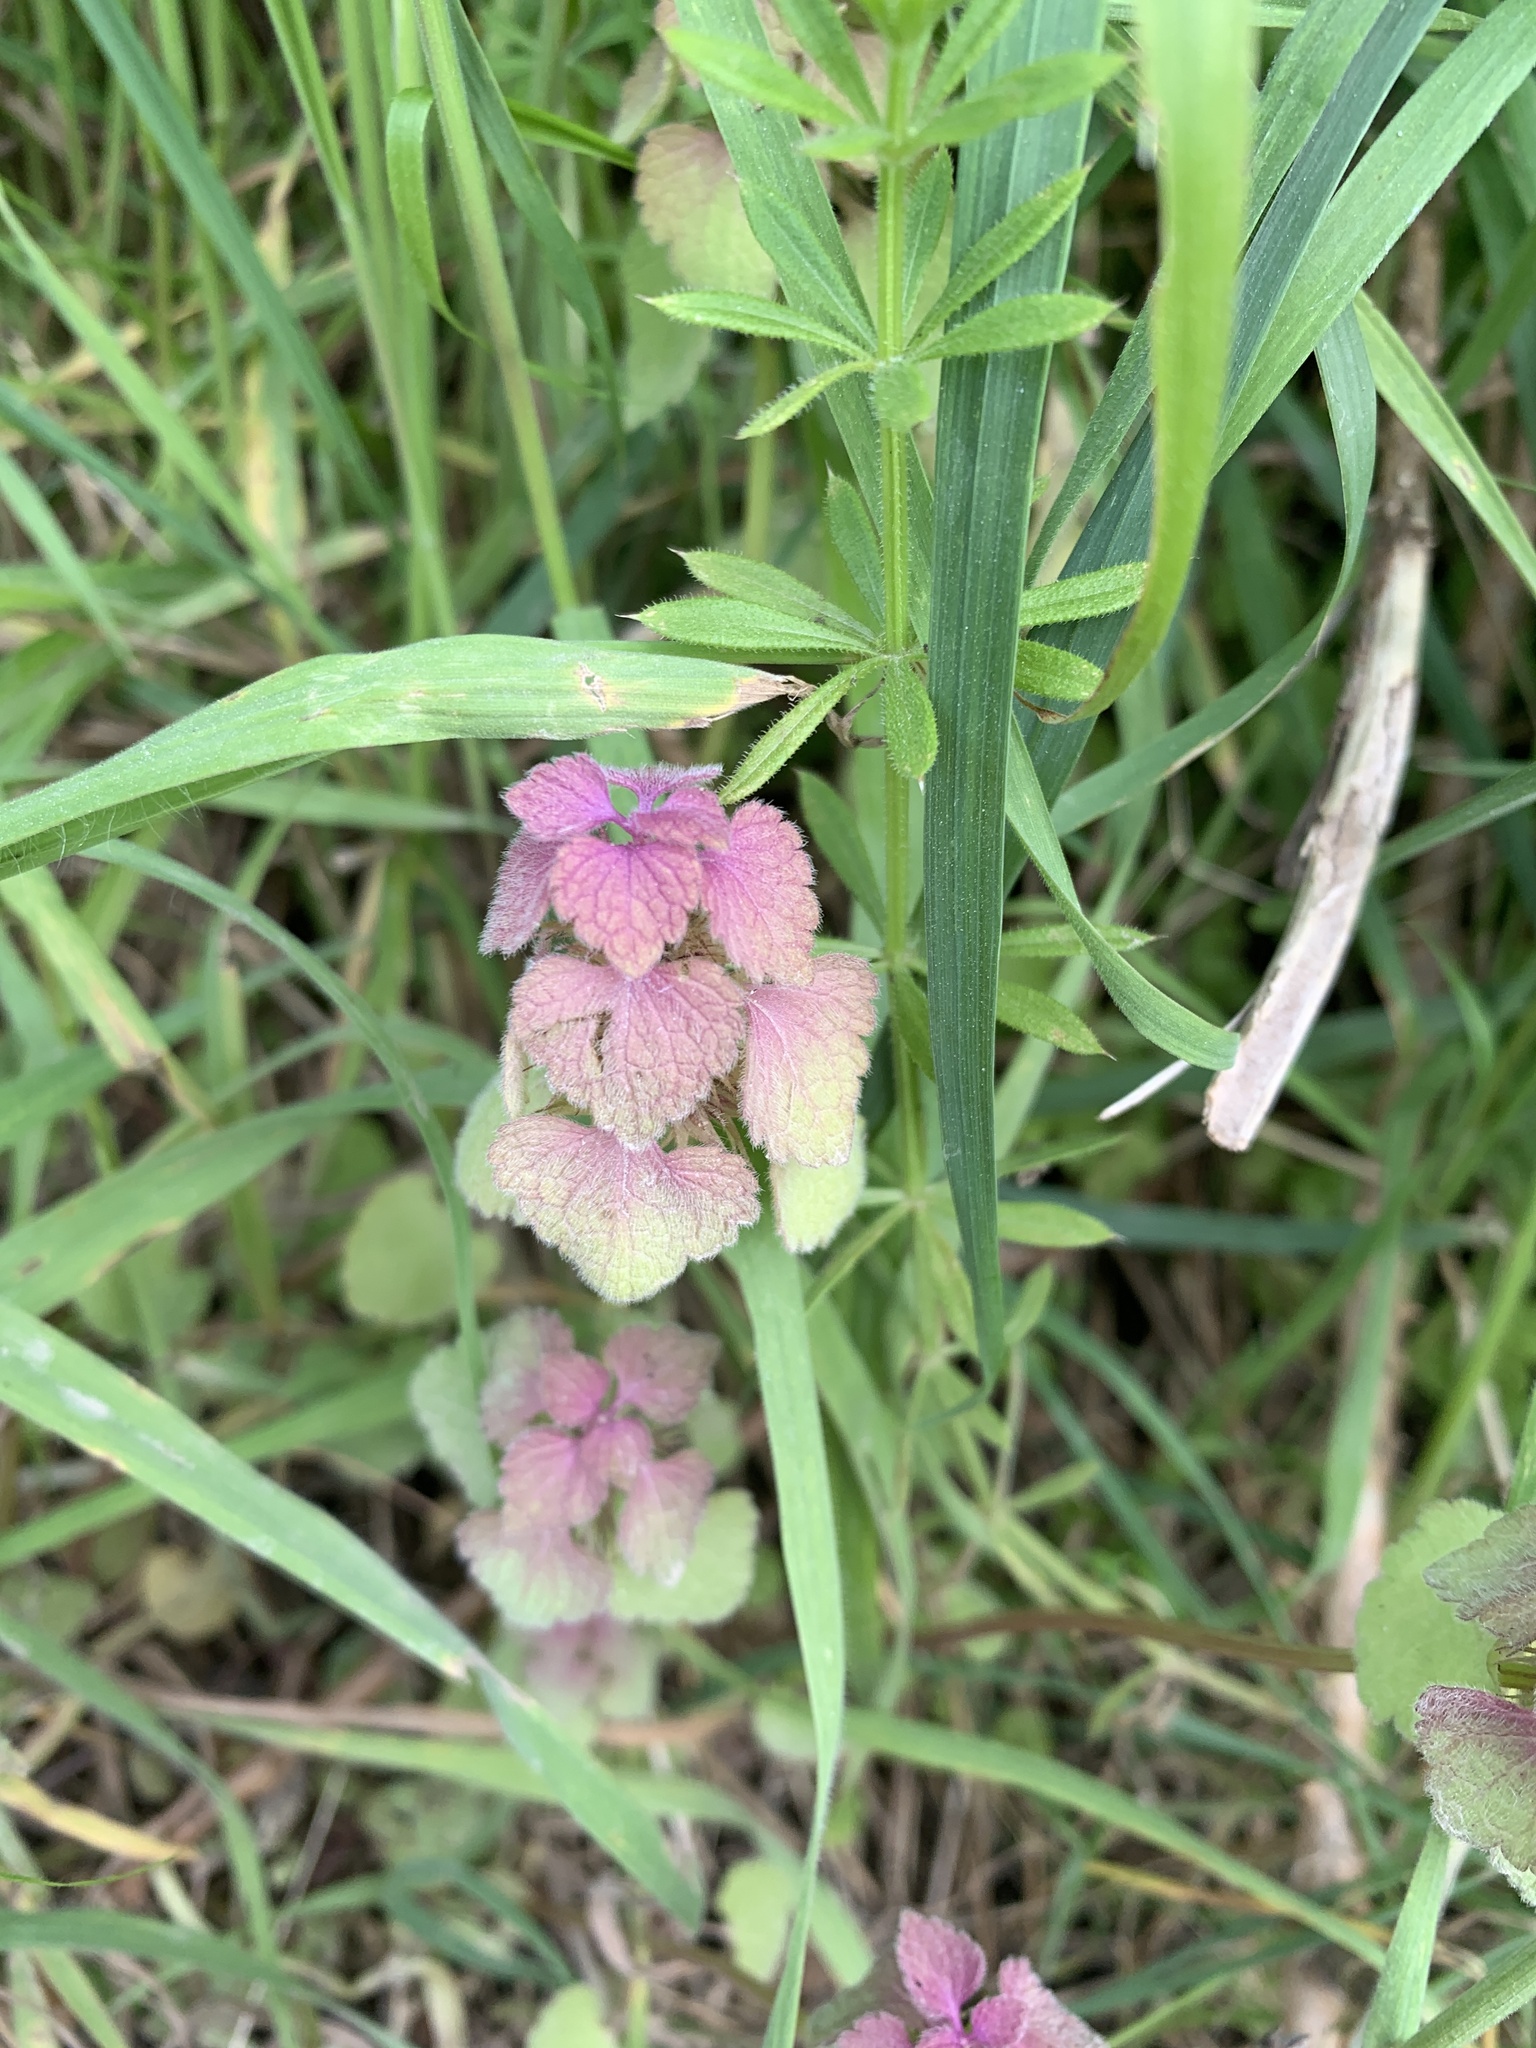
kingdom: Plantae
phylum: Tracheophyta
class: Magnoliopsida
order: Lamiales
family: Lamiaceae
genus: Lamium
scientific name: Lamium purpureum
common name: Red dead-nettle
